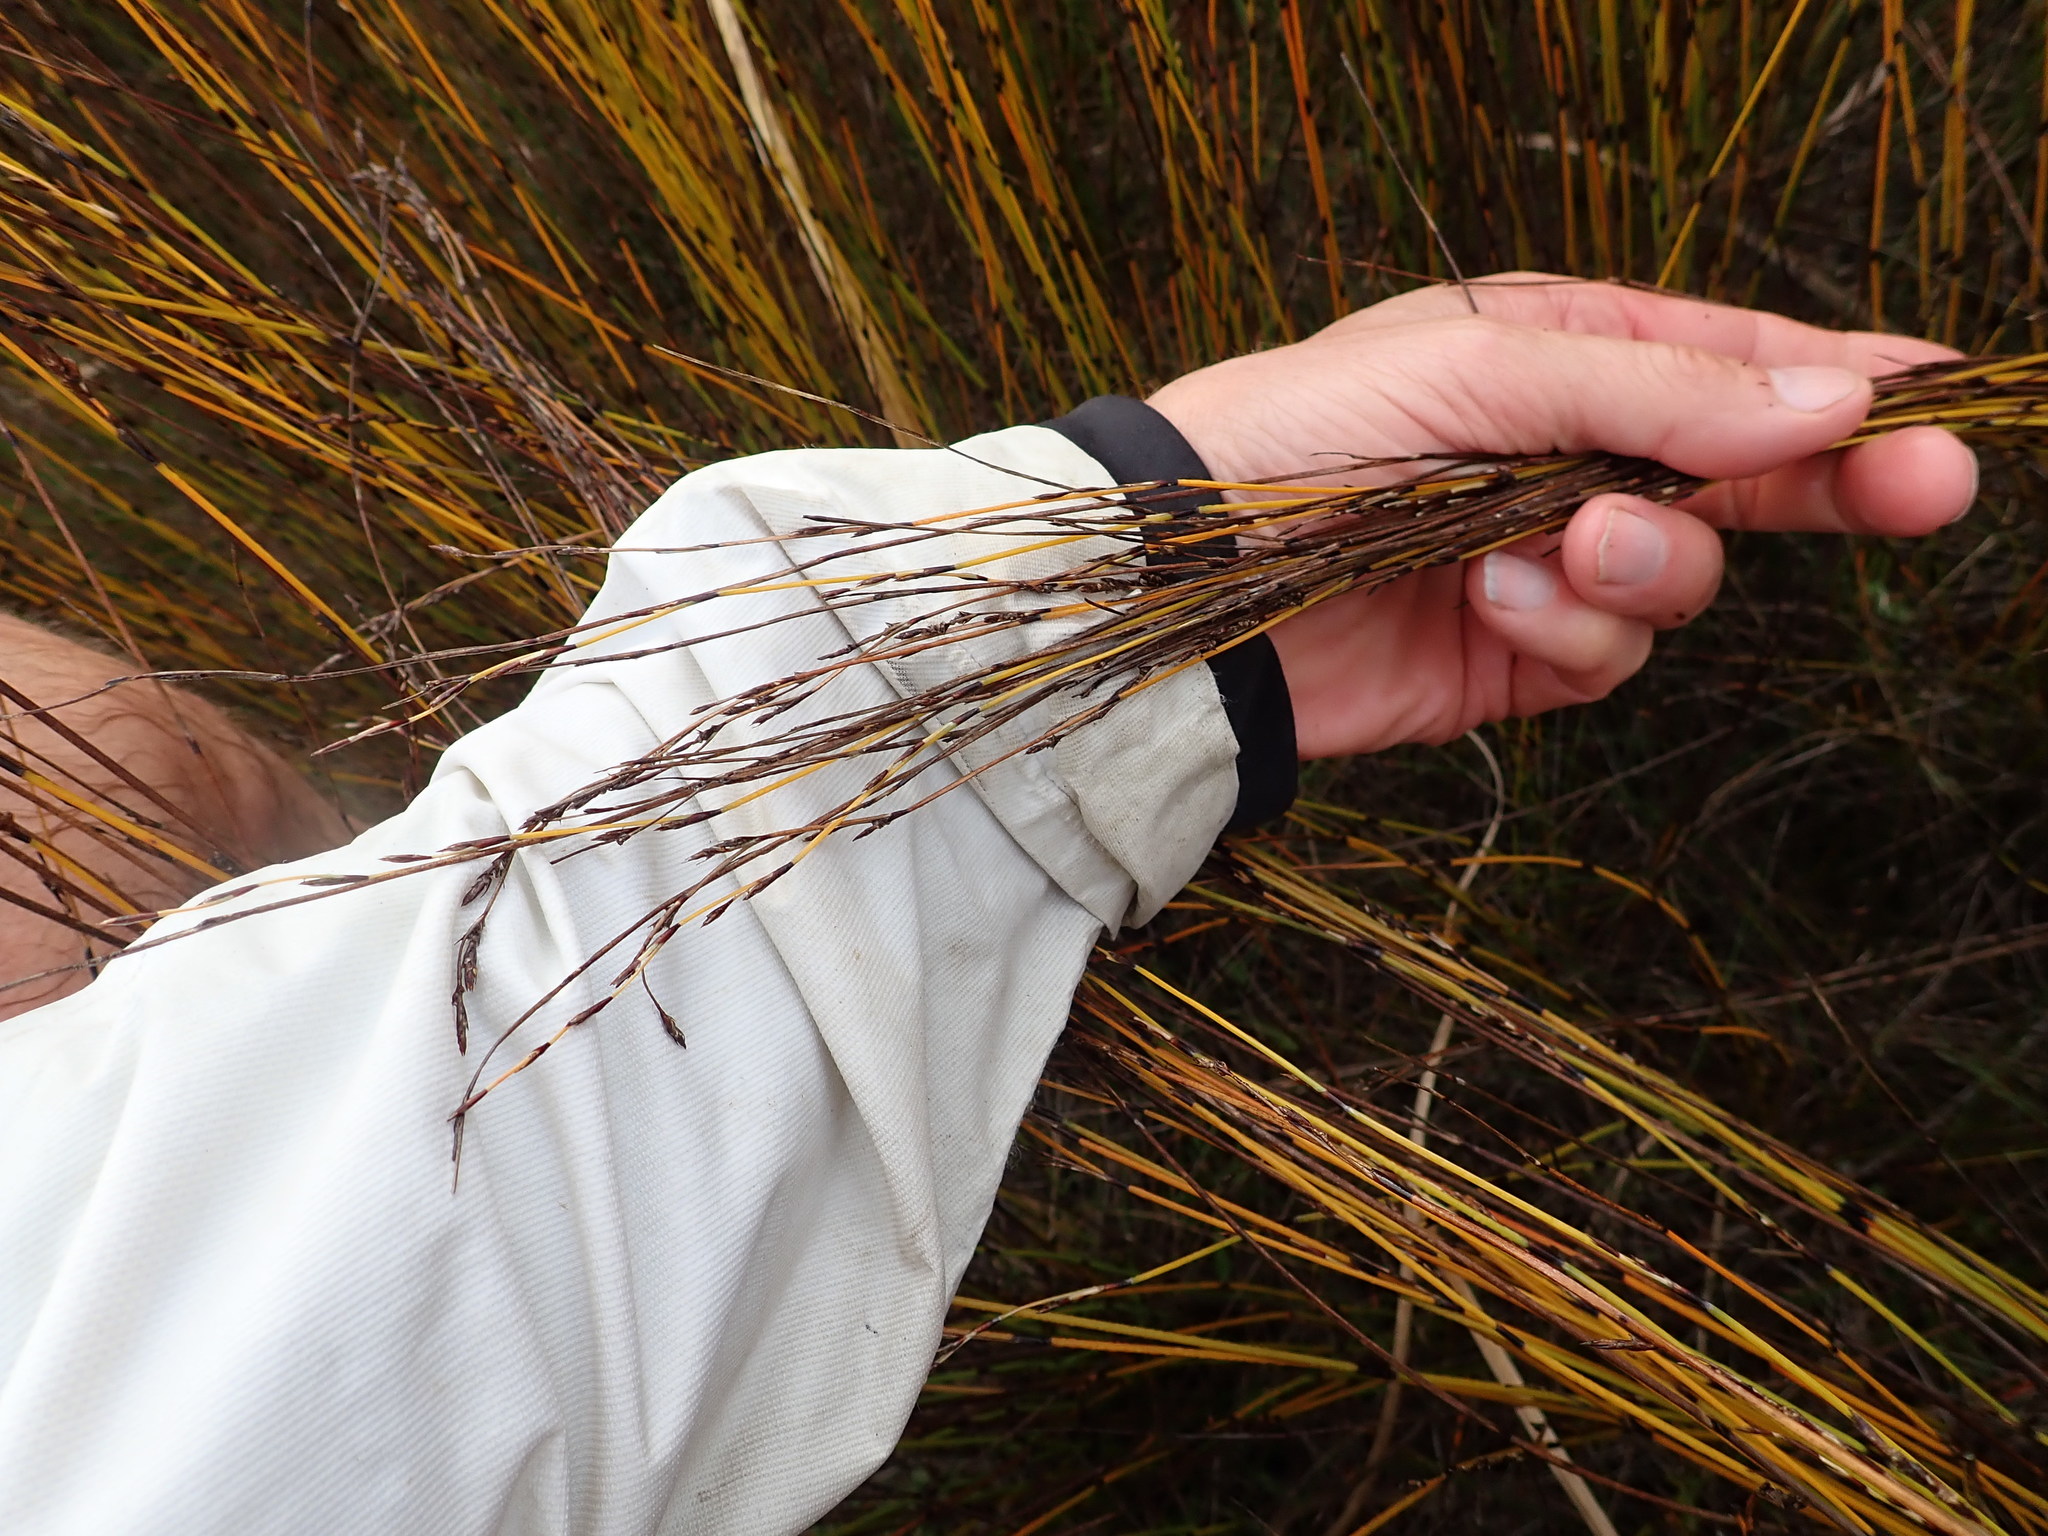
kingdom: Plantae
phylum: Tracheophyta
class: Liliopsida
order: Poales
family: Restionaceae
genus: Apodasmia
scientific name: Apodasmia similis
